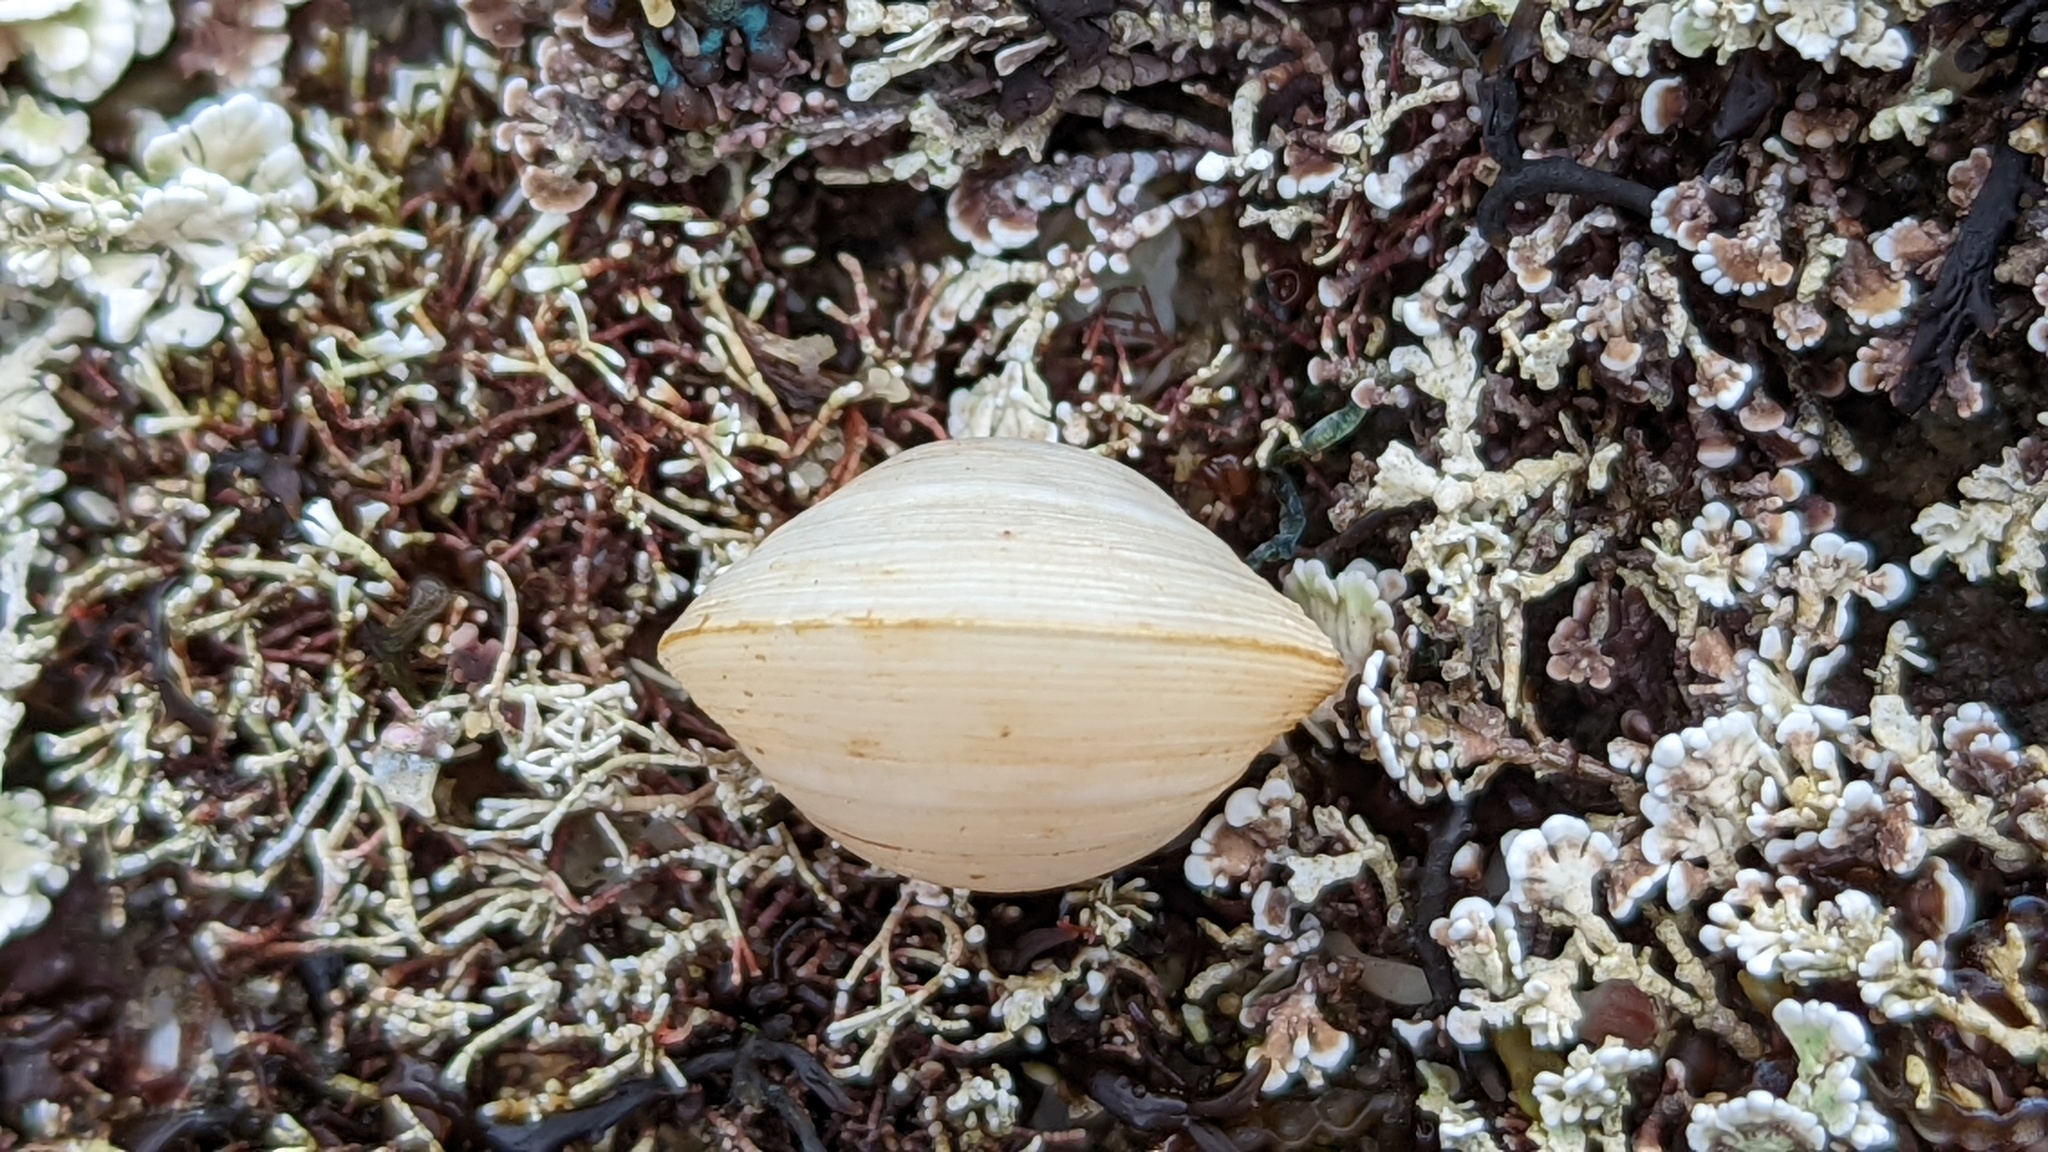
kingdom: Animalia
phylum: Mollusca
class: Bivalvia
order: Venerida
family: Ungulinidae
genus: Zemysina
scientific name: Zemysina orbella
